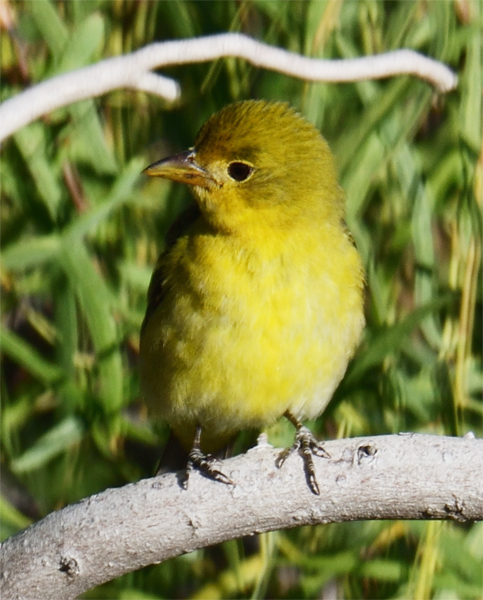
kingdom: Animalia
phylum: Chordata
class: Aves
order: Passeriformes
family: Cardinalidae
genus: Piranga
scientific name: Piranga ludoviciana
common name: Western tanager
